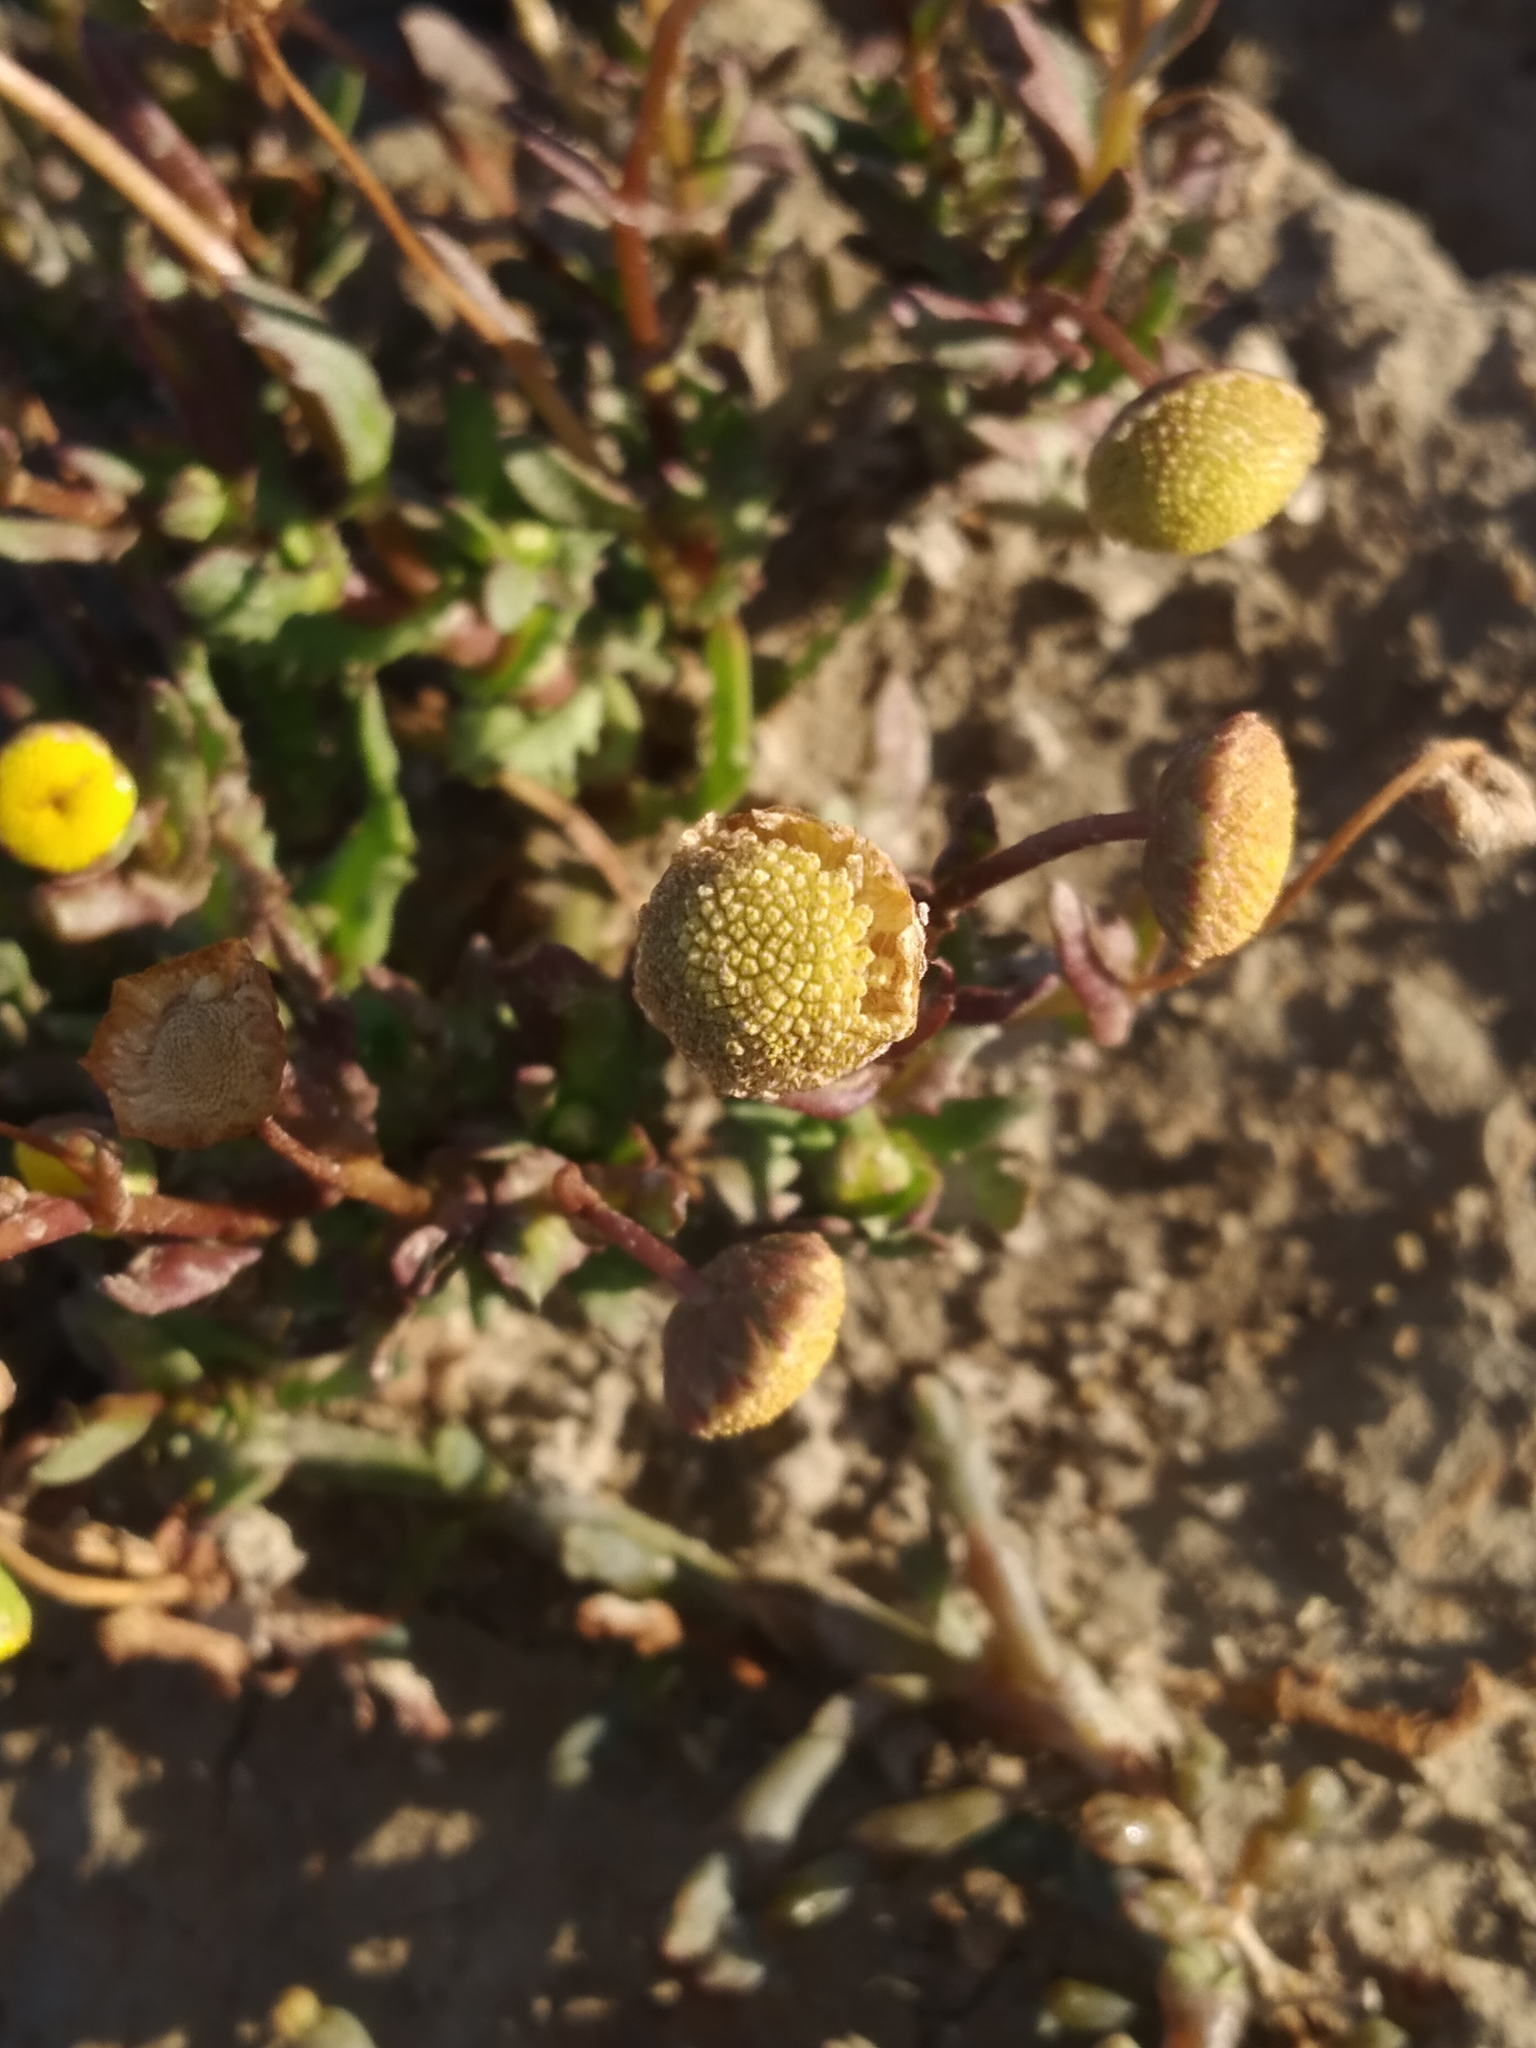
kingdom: Plantae
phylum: Tracheophyta
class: Magnoliopsida
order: Asterales
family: Asteraceae
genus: Cotula
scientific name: Cotula coronopifolia
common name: Buttonweed
